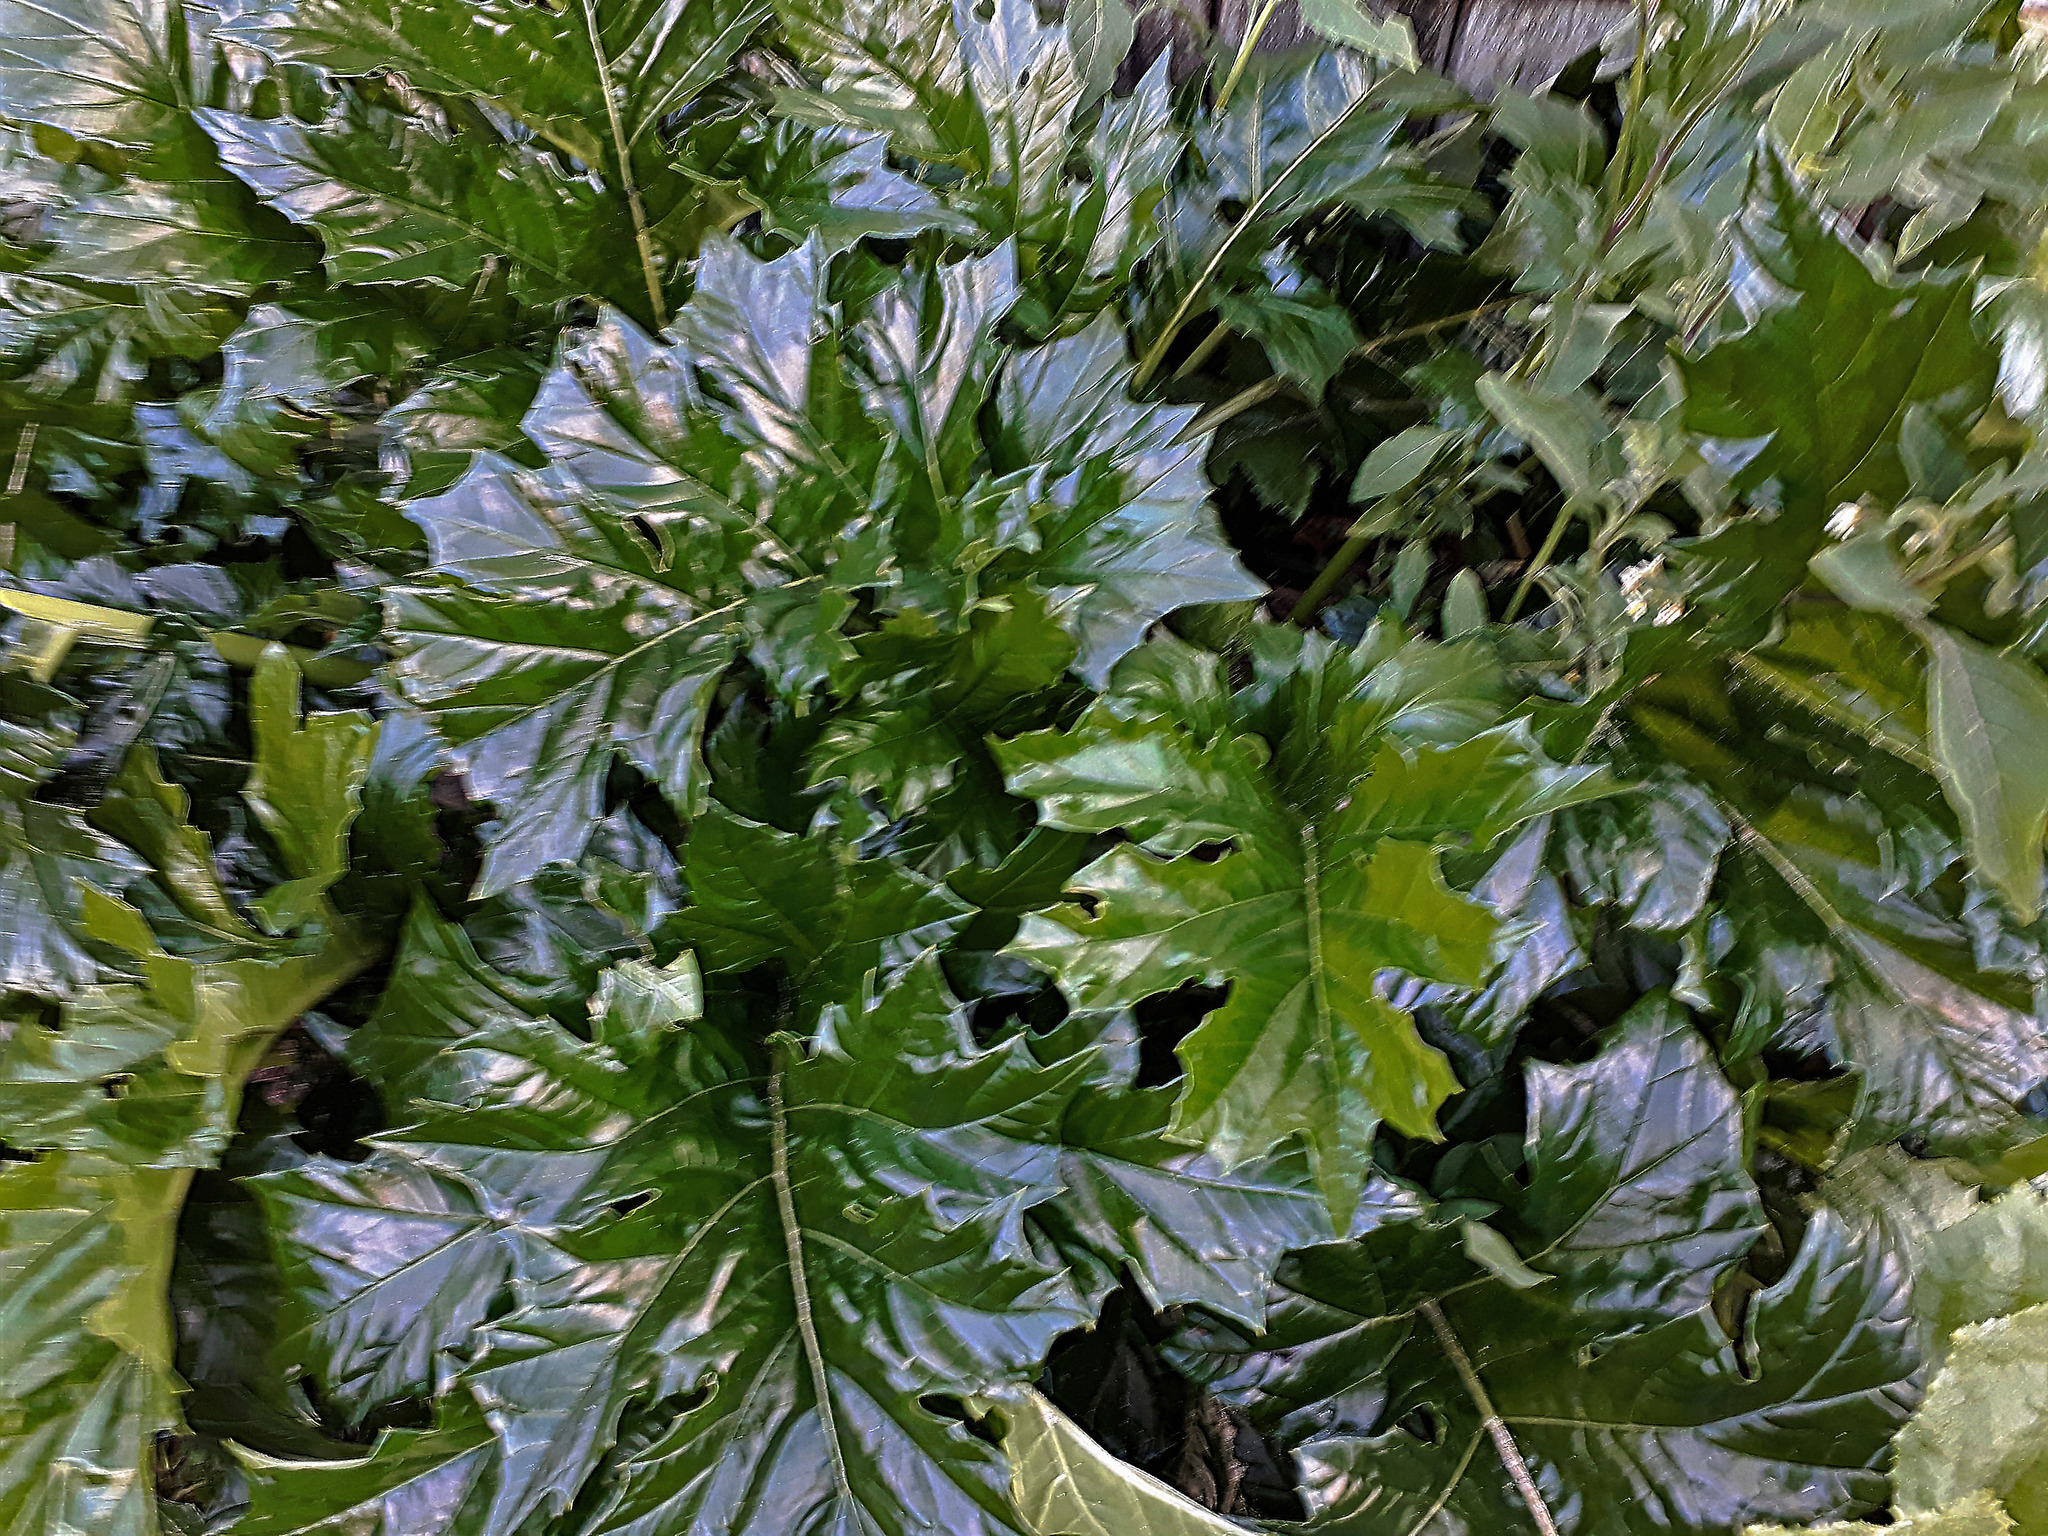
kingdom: Plantae
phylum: Tracheophyta
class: Magnoliopsida
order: Lamiales
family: Acanthaceae
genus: Acanthus
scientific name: Acanthus mollis
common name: Bear's-breech
